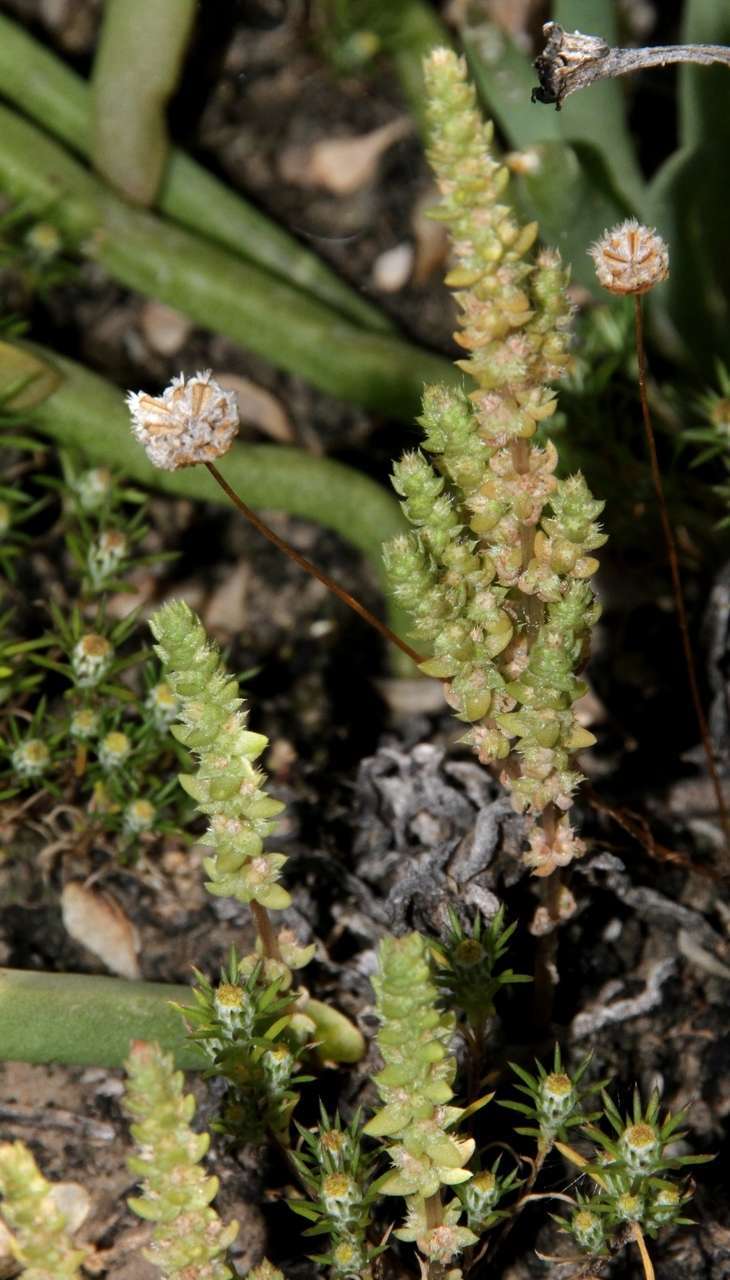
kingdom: Plantae
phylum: Tracheophyta
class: Magnoliopsida
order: Saxifragales
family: Crassulaceae
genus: Crassula
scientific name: Crassula colorata
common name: Dense pigmyweed
